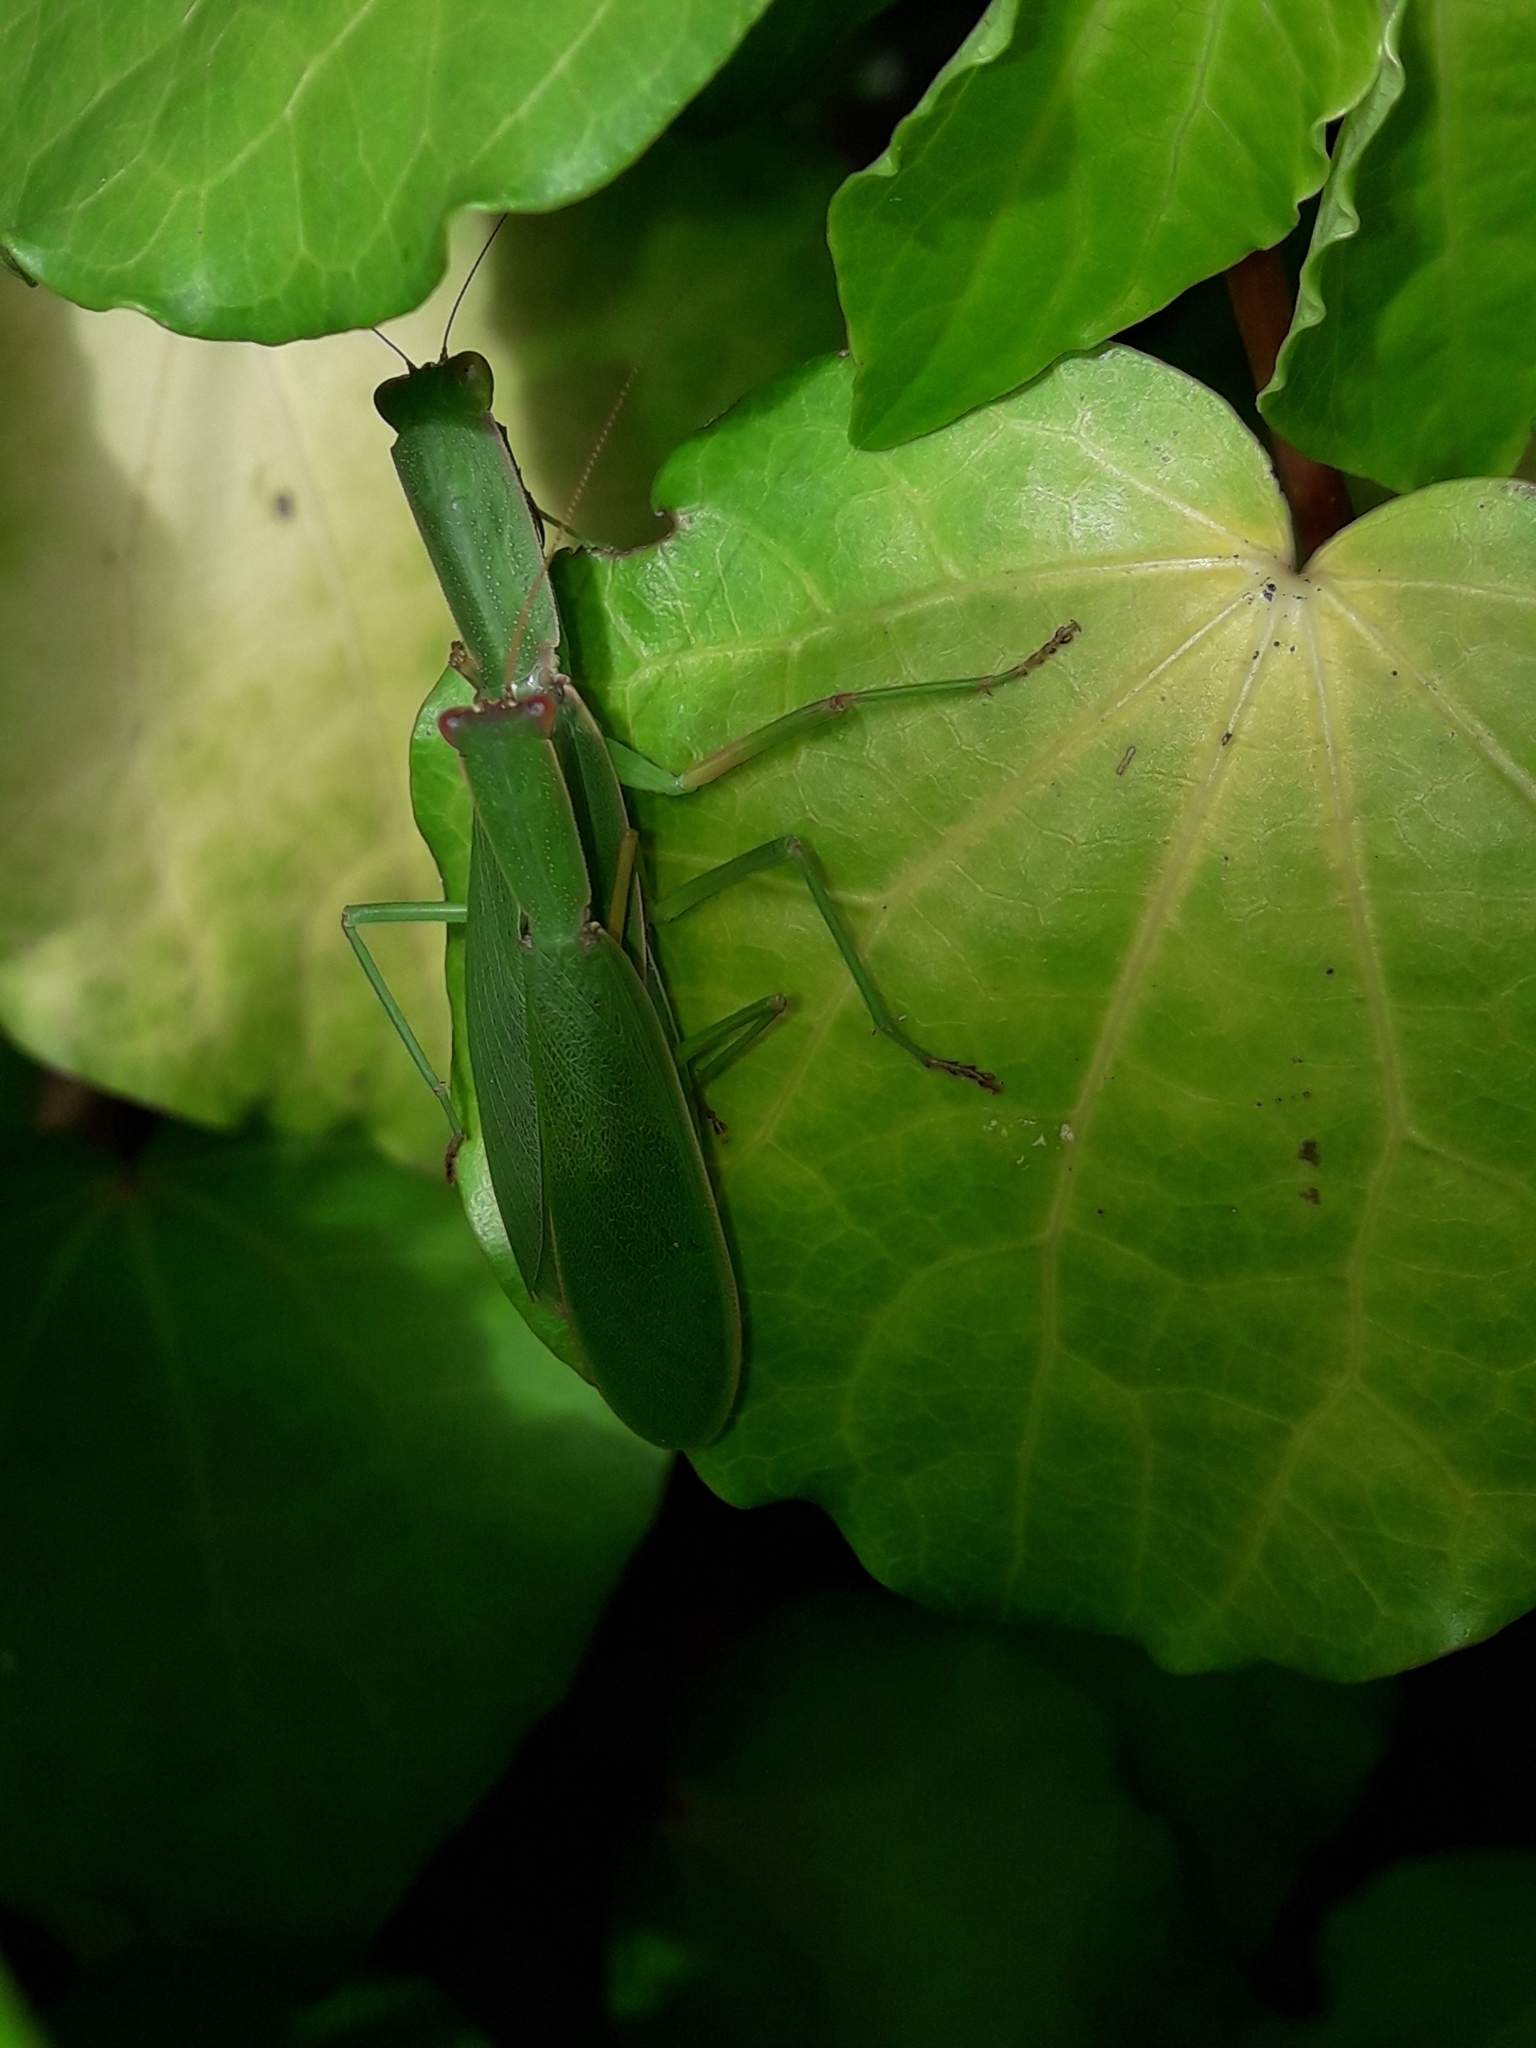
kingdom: Animalia
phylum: Arthropoda
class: Insecta
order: Mantodea
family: Mantidae
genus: Orthodera
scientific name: Orthodera novaezealandiae
